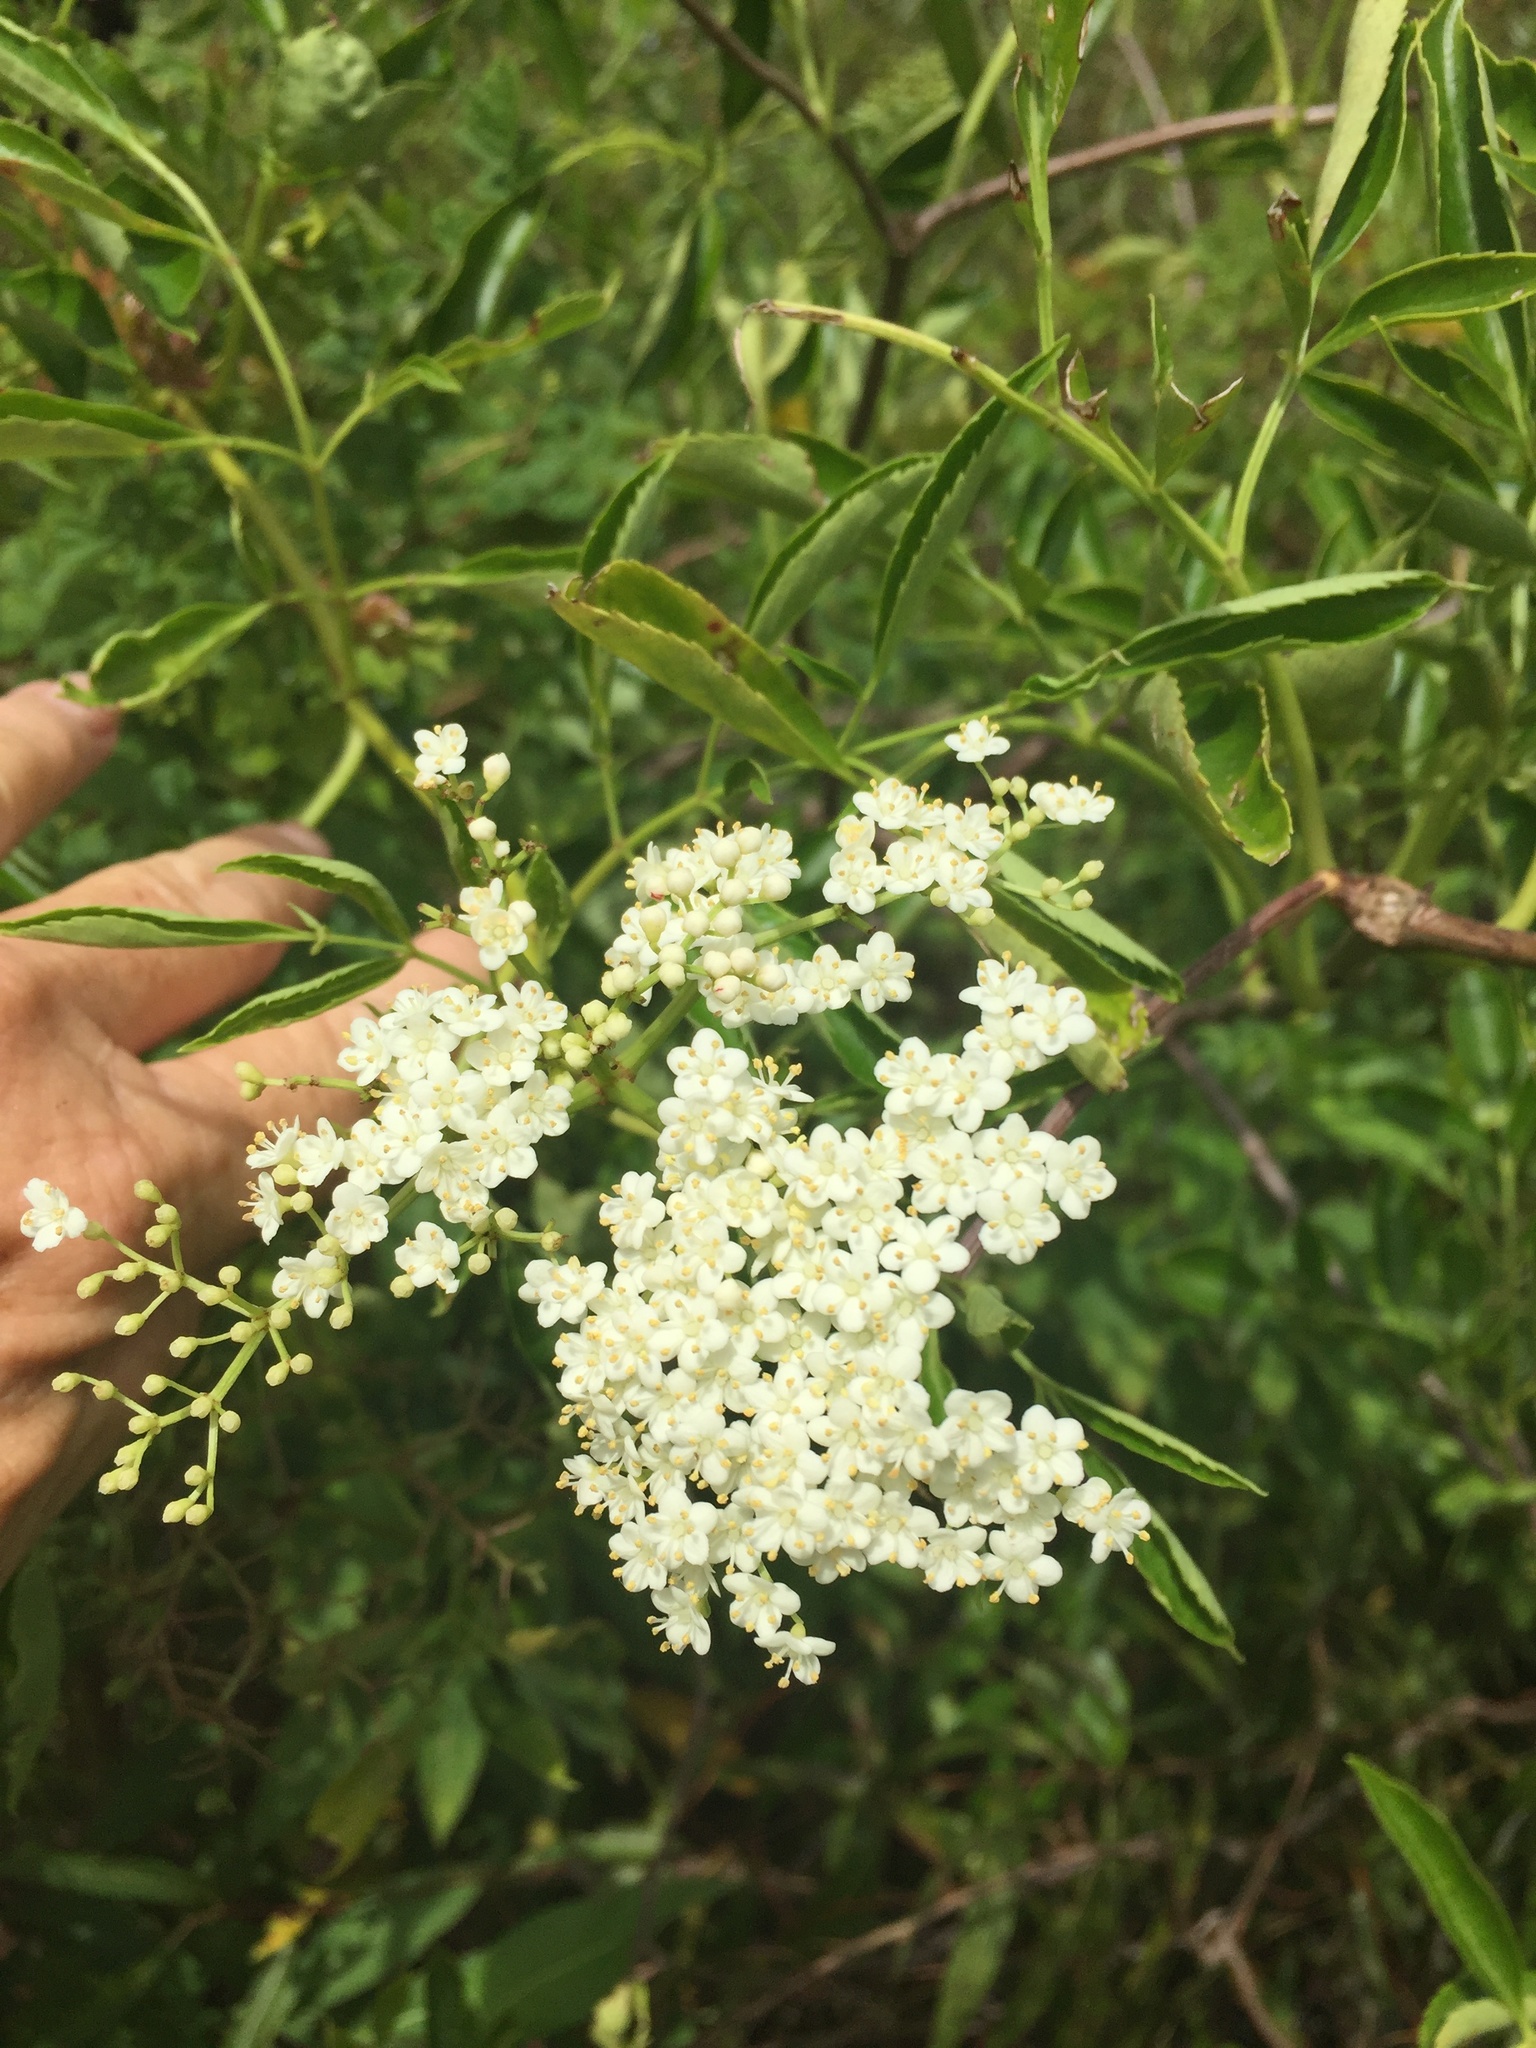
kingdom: Plantae
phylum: Tracheophyta
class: Magnoliopsida
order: Dipsacales
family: Viburnaceae
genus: Sambucus
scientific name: Sambucus canadensis
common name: American elder
